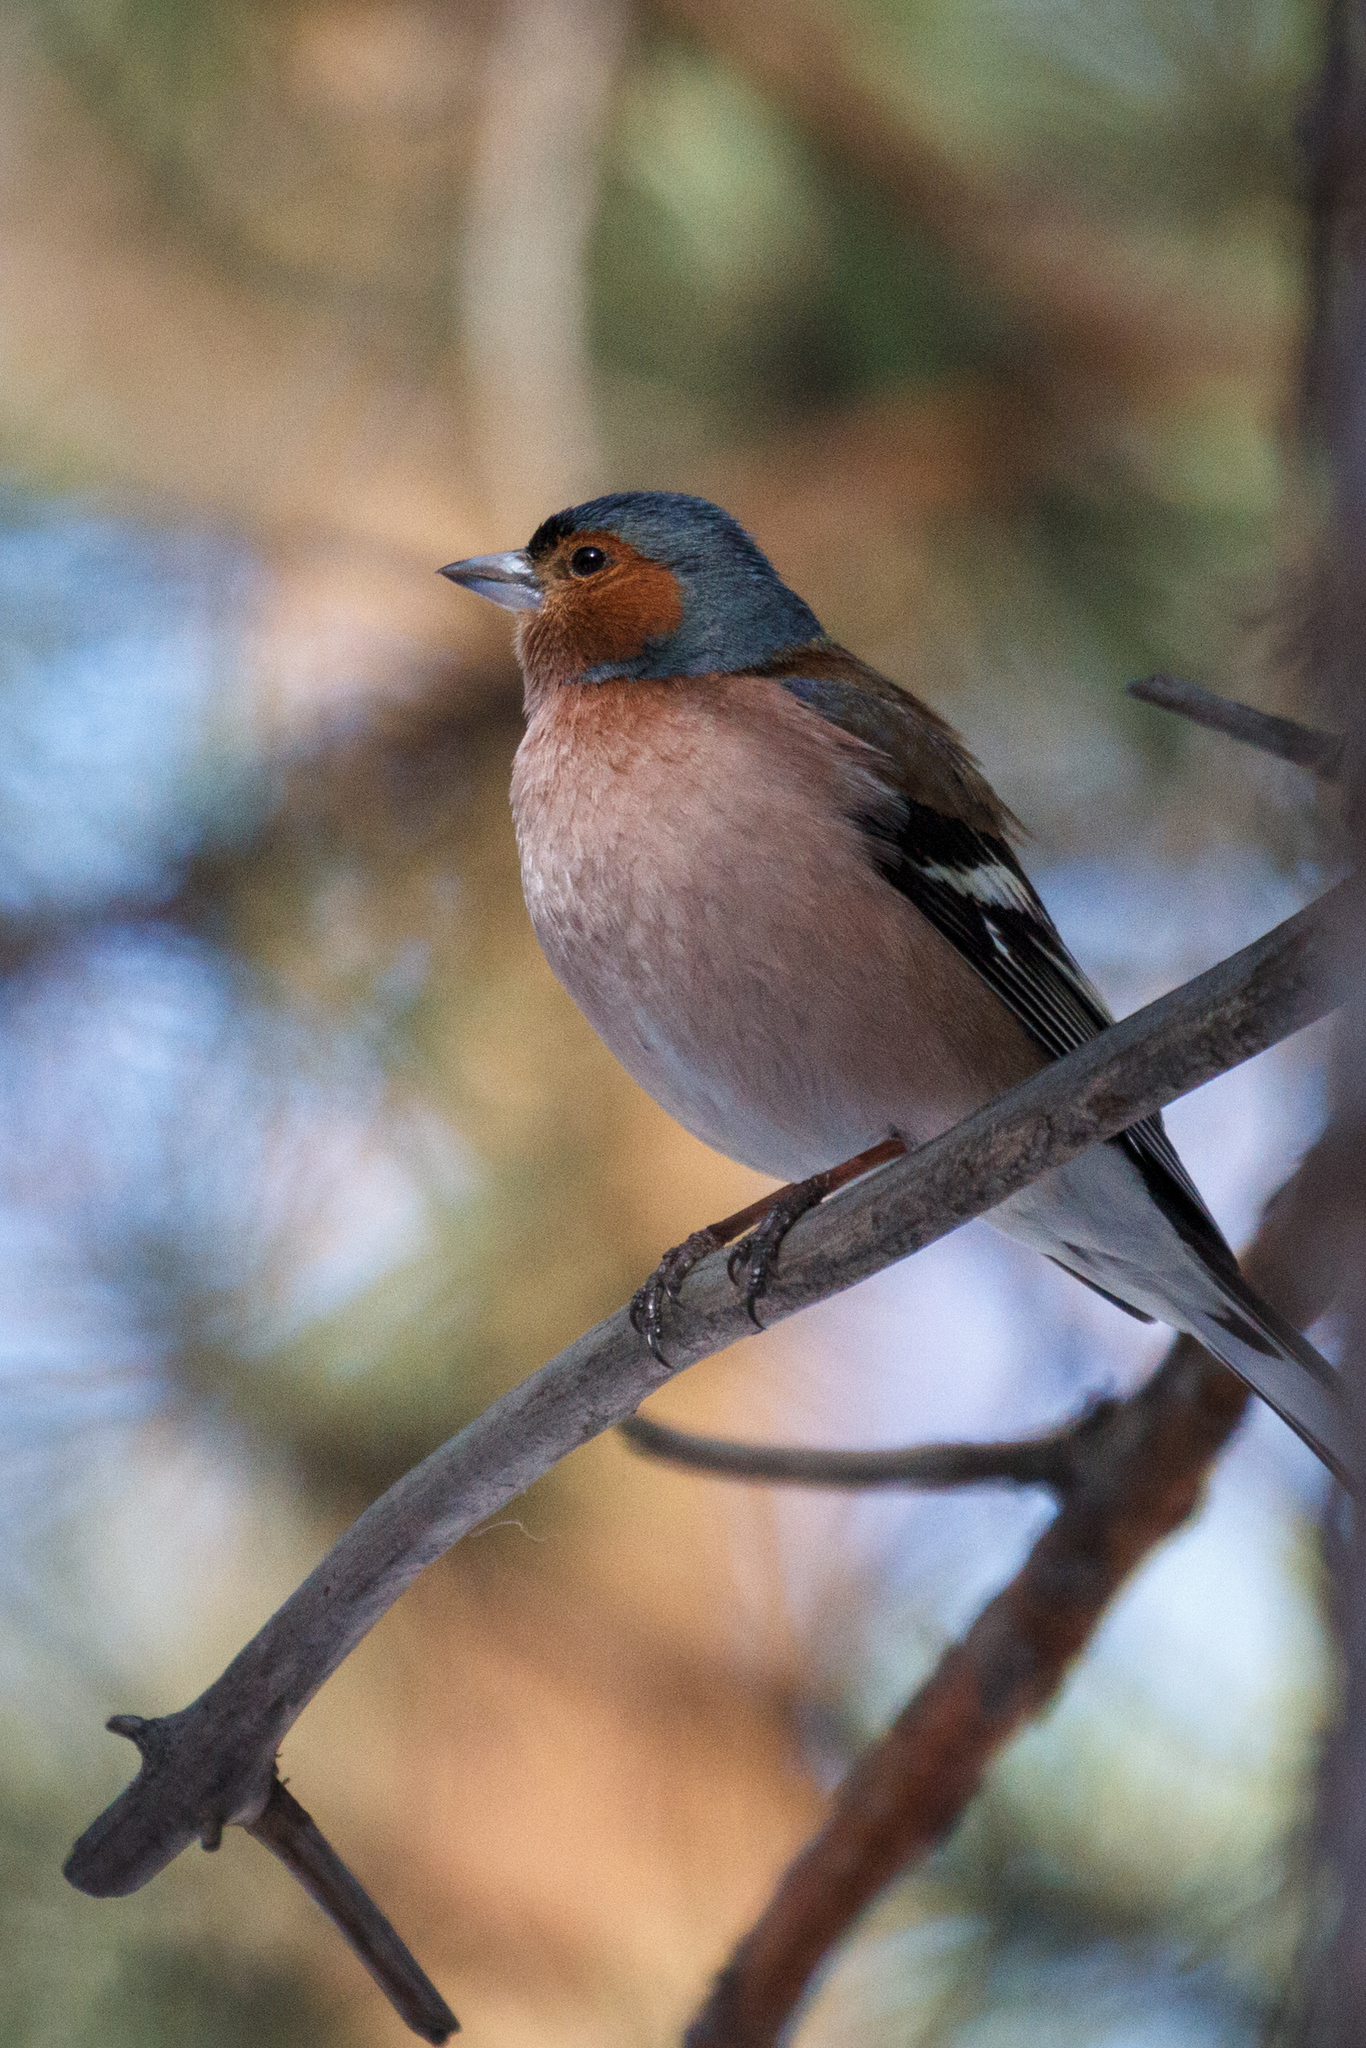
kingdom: Animalia
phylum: Chordata
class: Aves
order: Passeriformes
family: Fringillidae
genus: Fringilla
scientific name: Fringilla coelebs
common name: Common chaffinch
